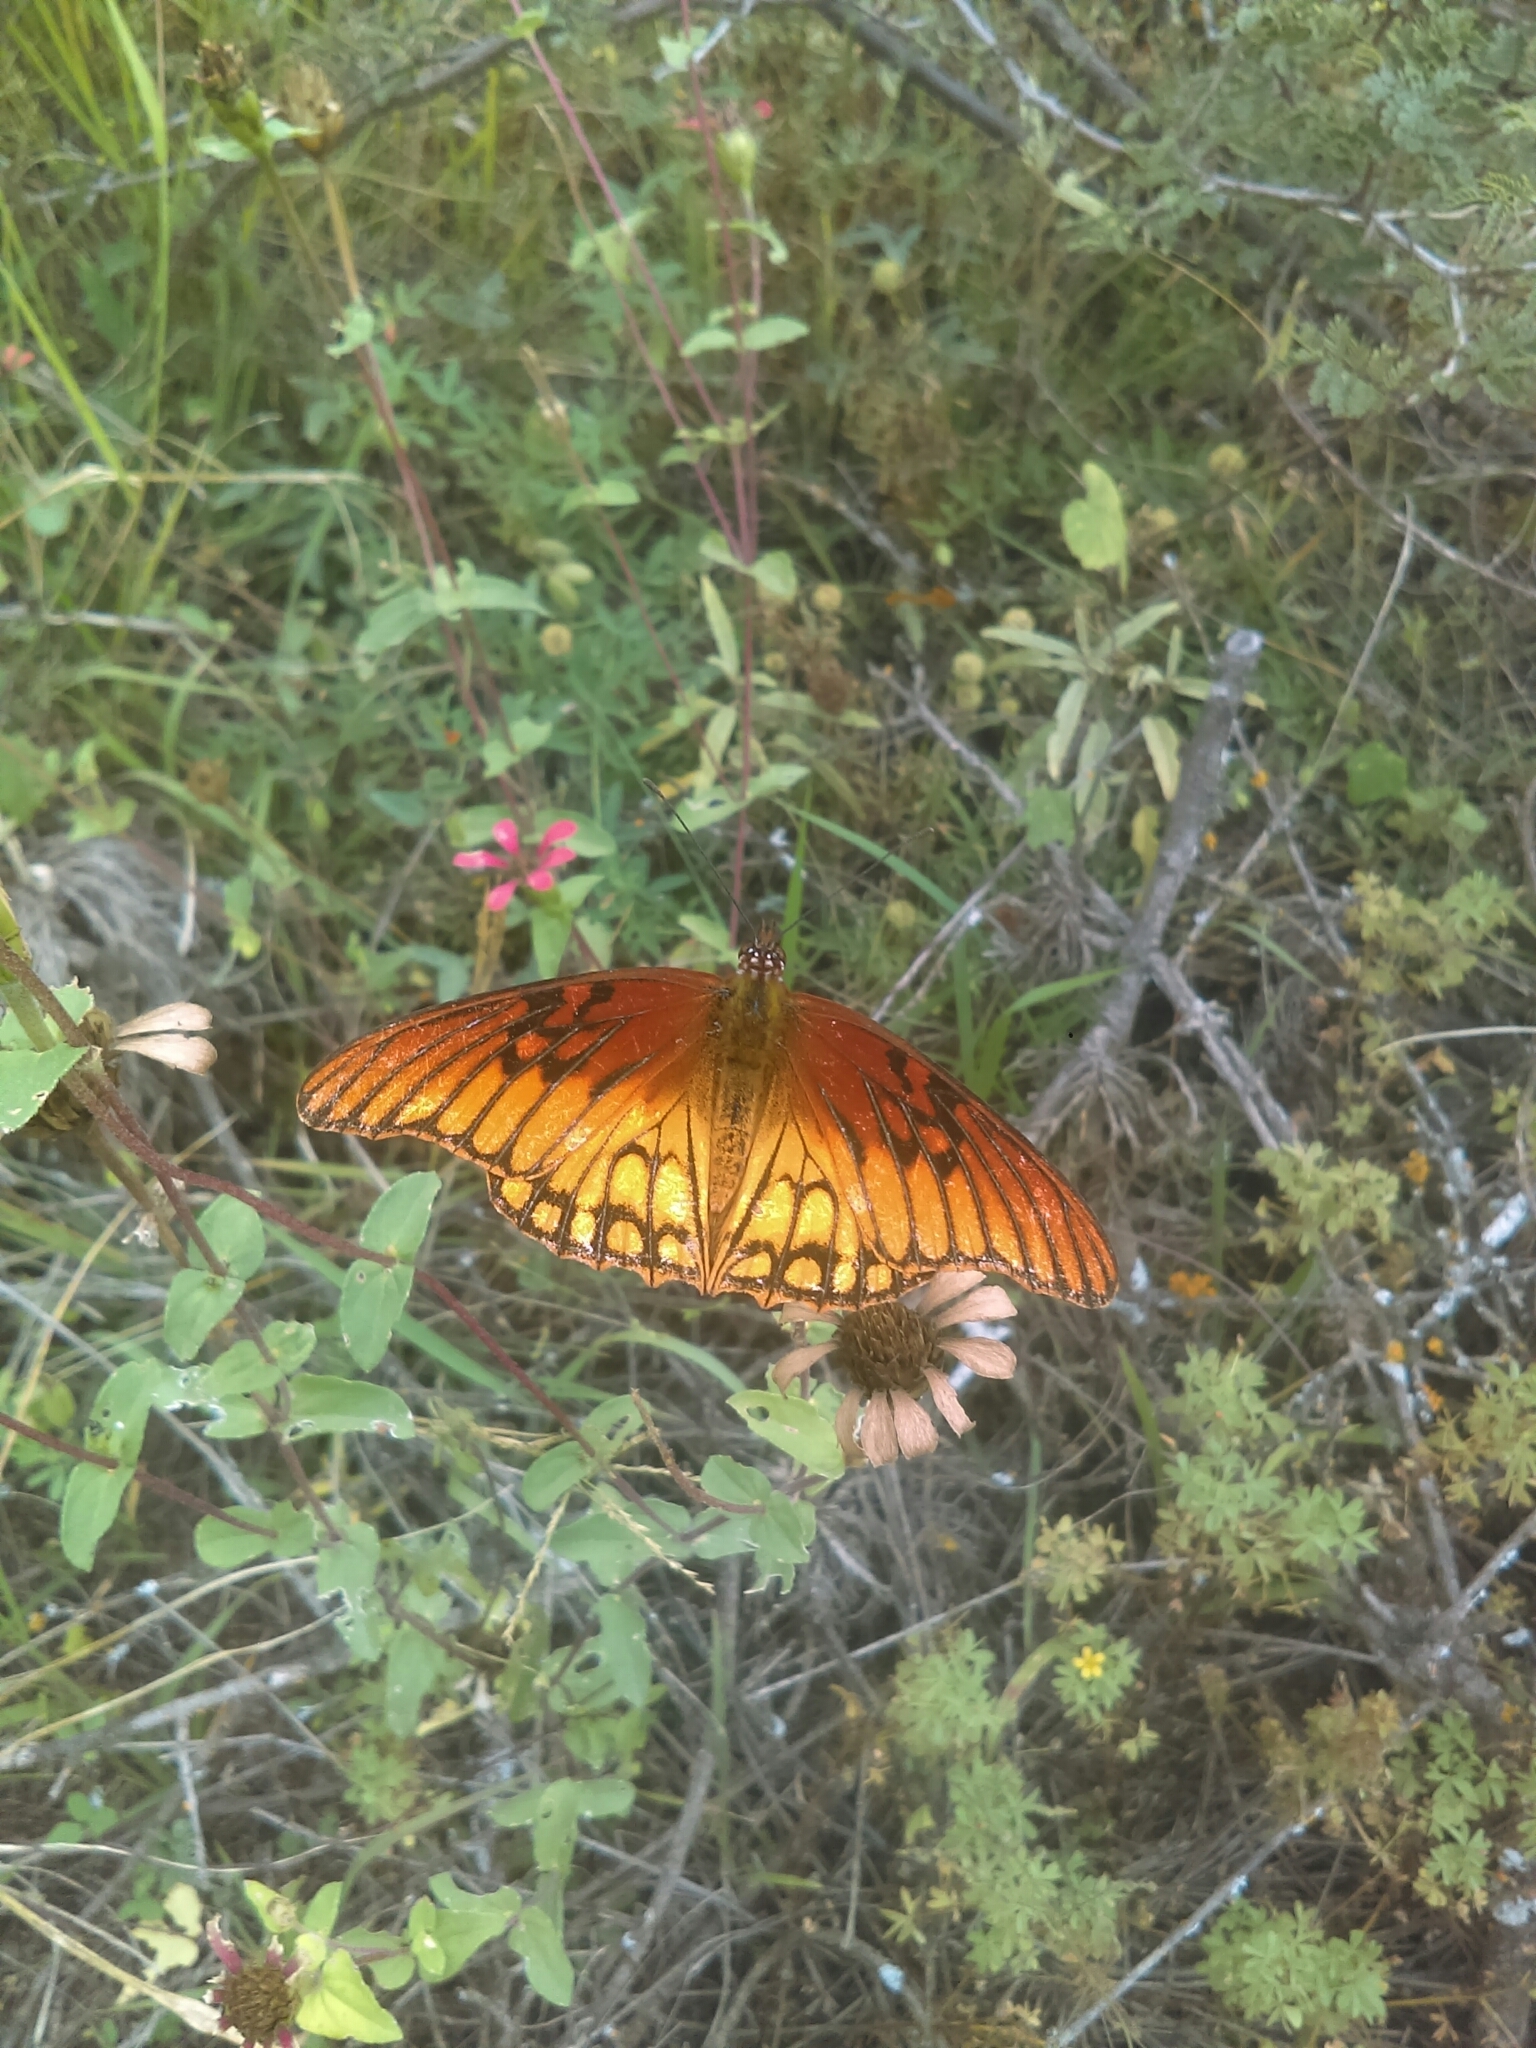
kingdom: Animalia
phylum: Arthropoda
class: Insecta
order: Lepidoptera
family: Nymphalidae
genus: Dione
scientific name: Dione moneta
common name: Mexican silverspot
